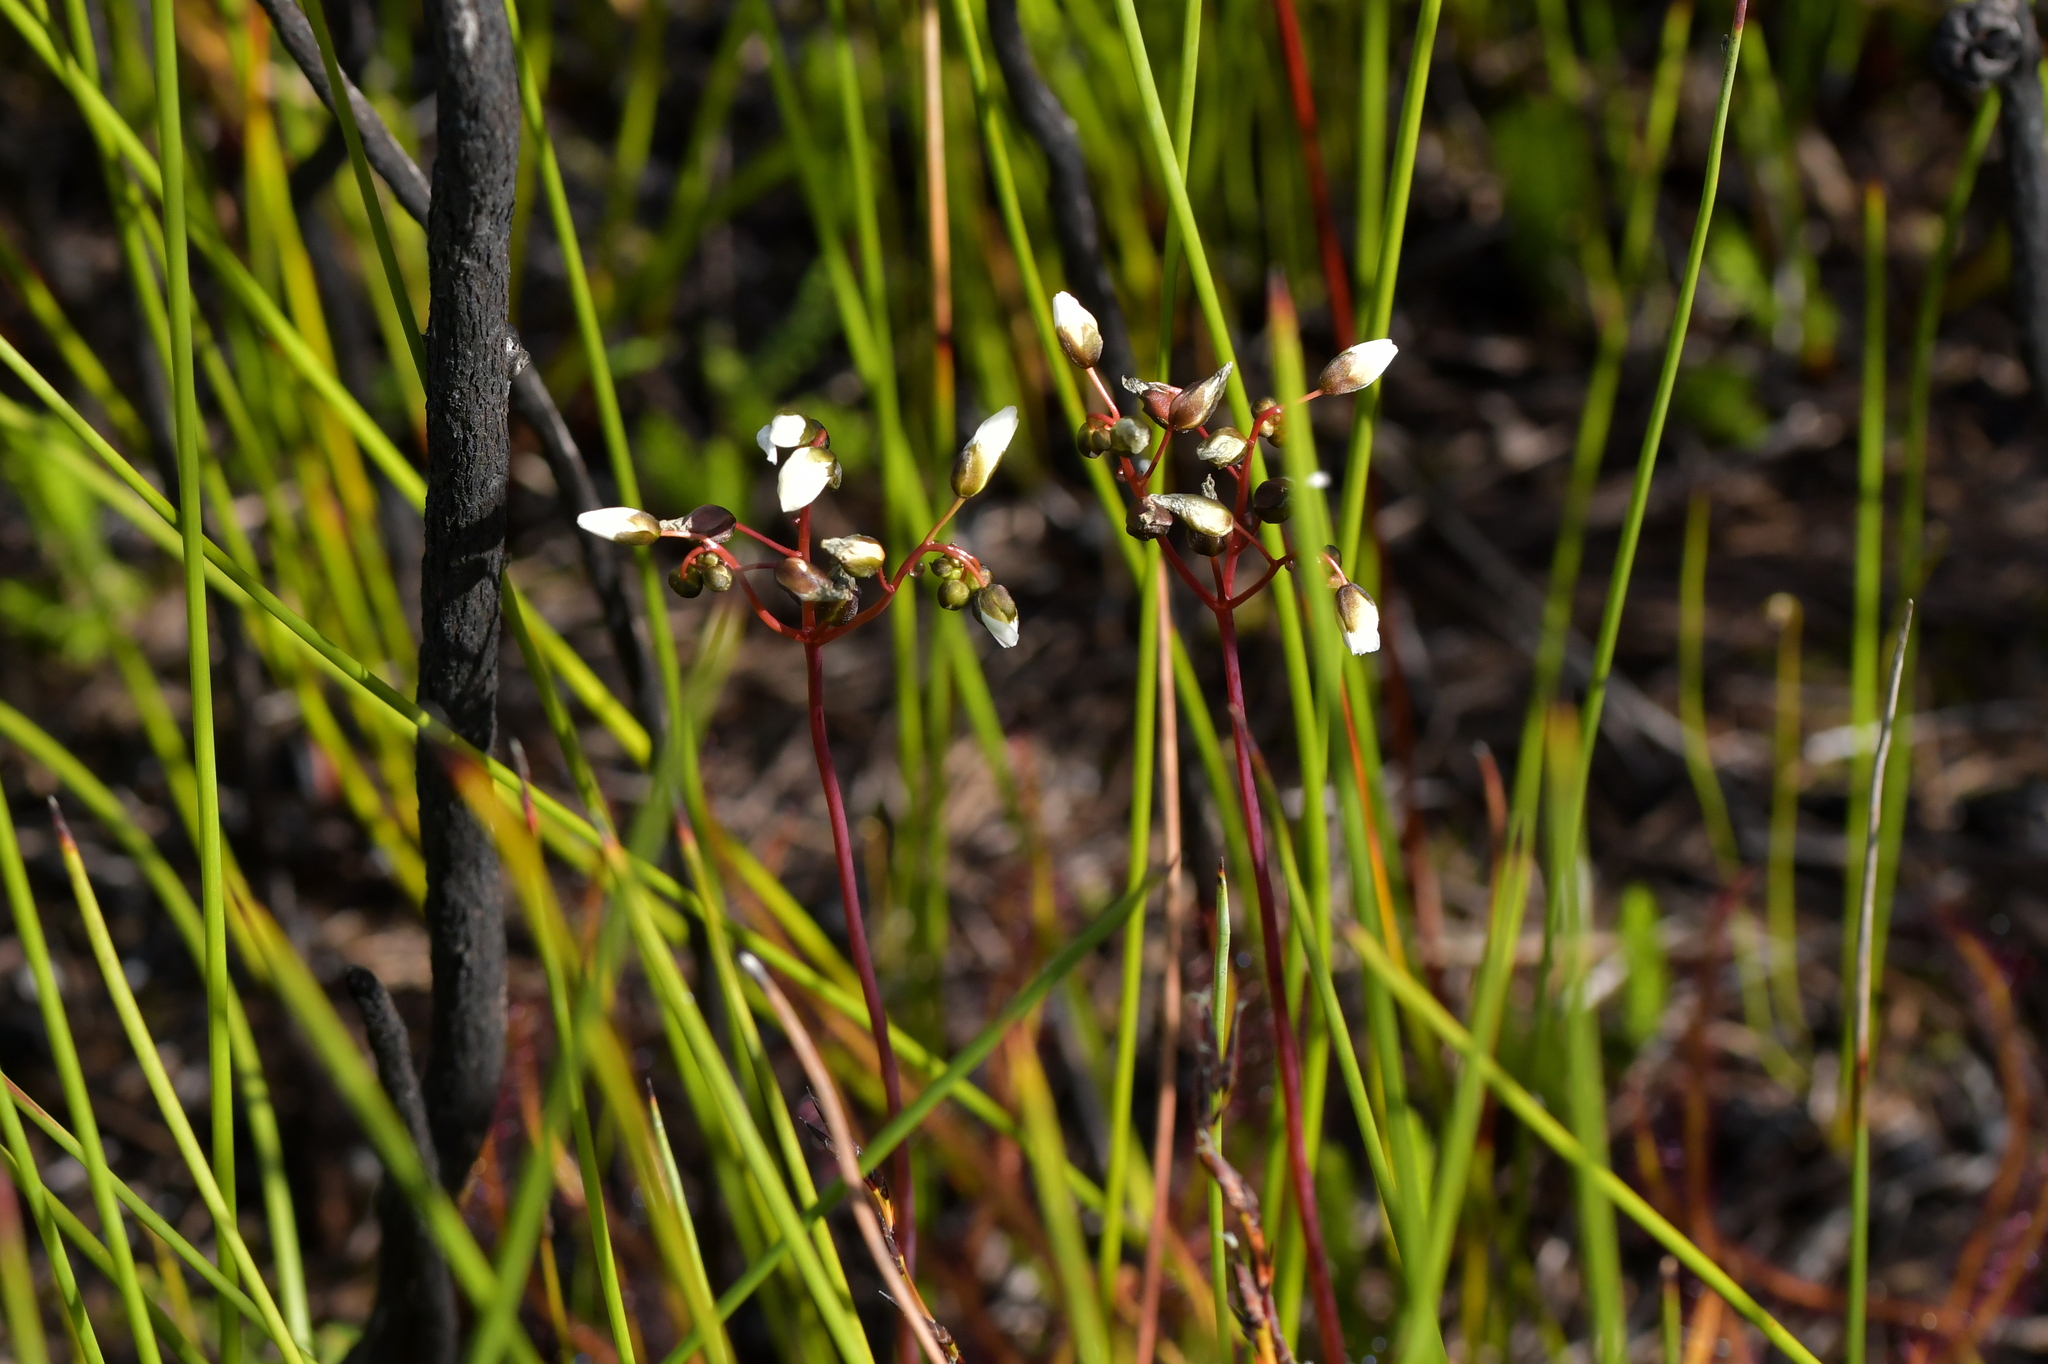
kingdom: Plantae
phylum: Tracheophyta
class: Magnoliopsida
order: Caryophyllales
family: Droseraceae
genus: Drosera
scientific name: Drosera binata
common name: Forked sundew
